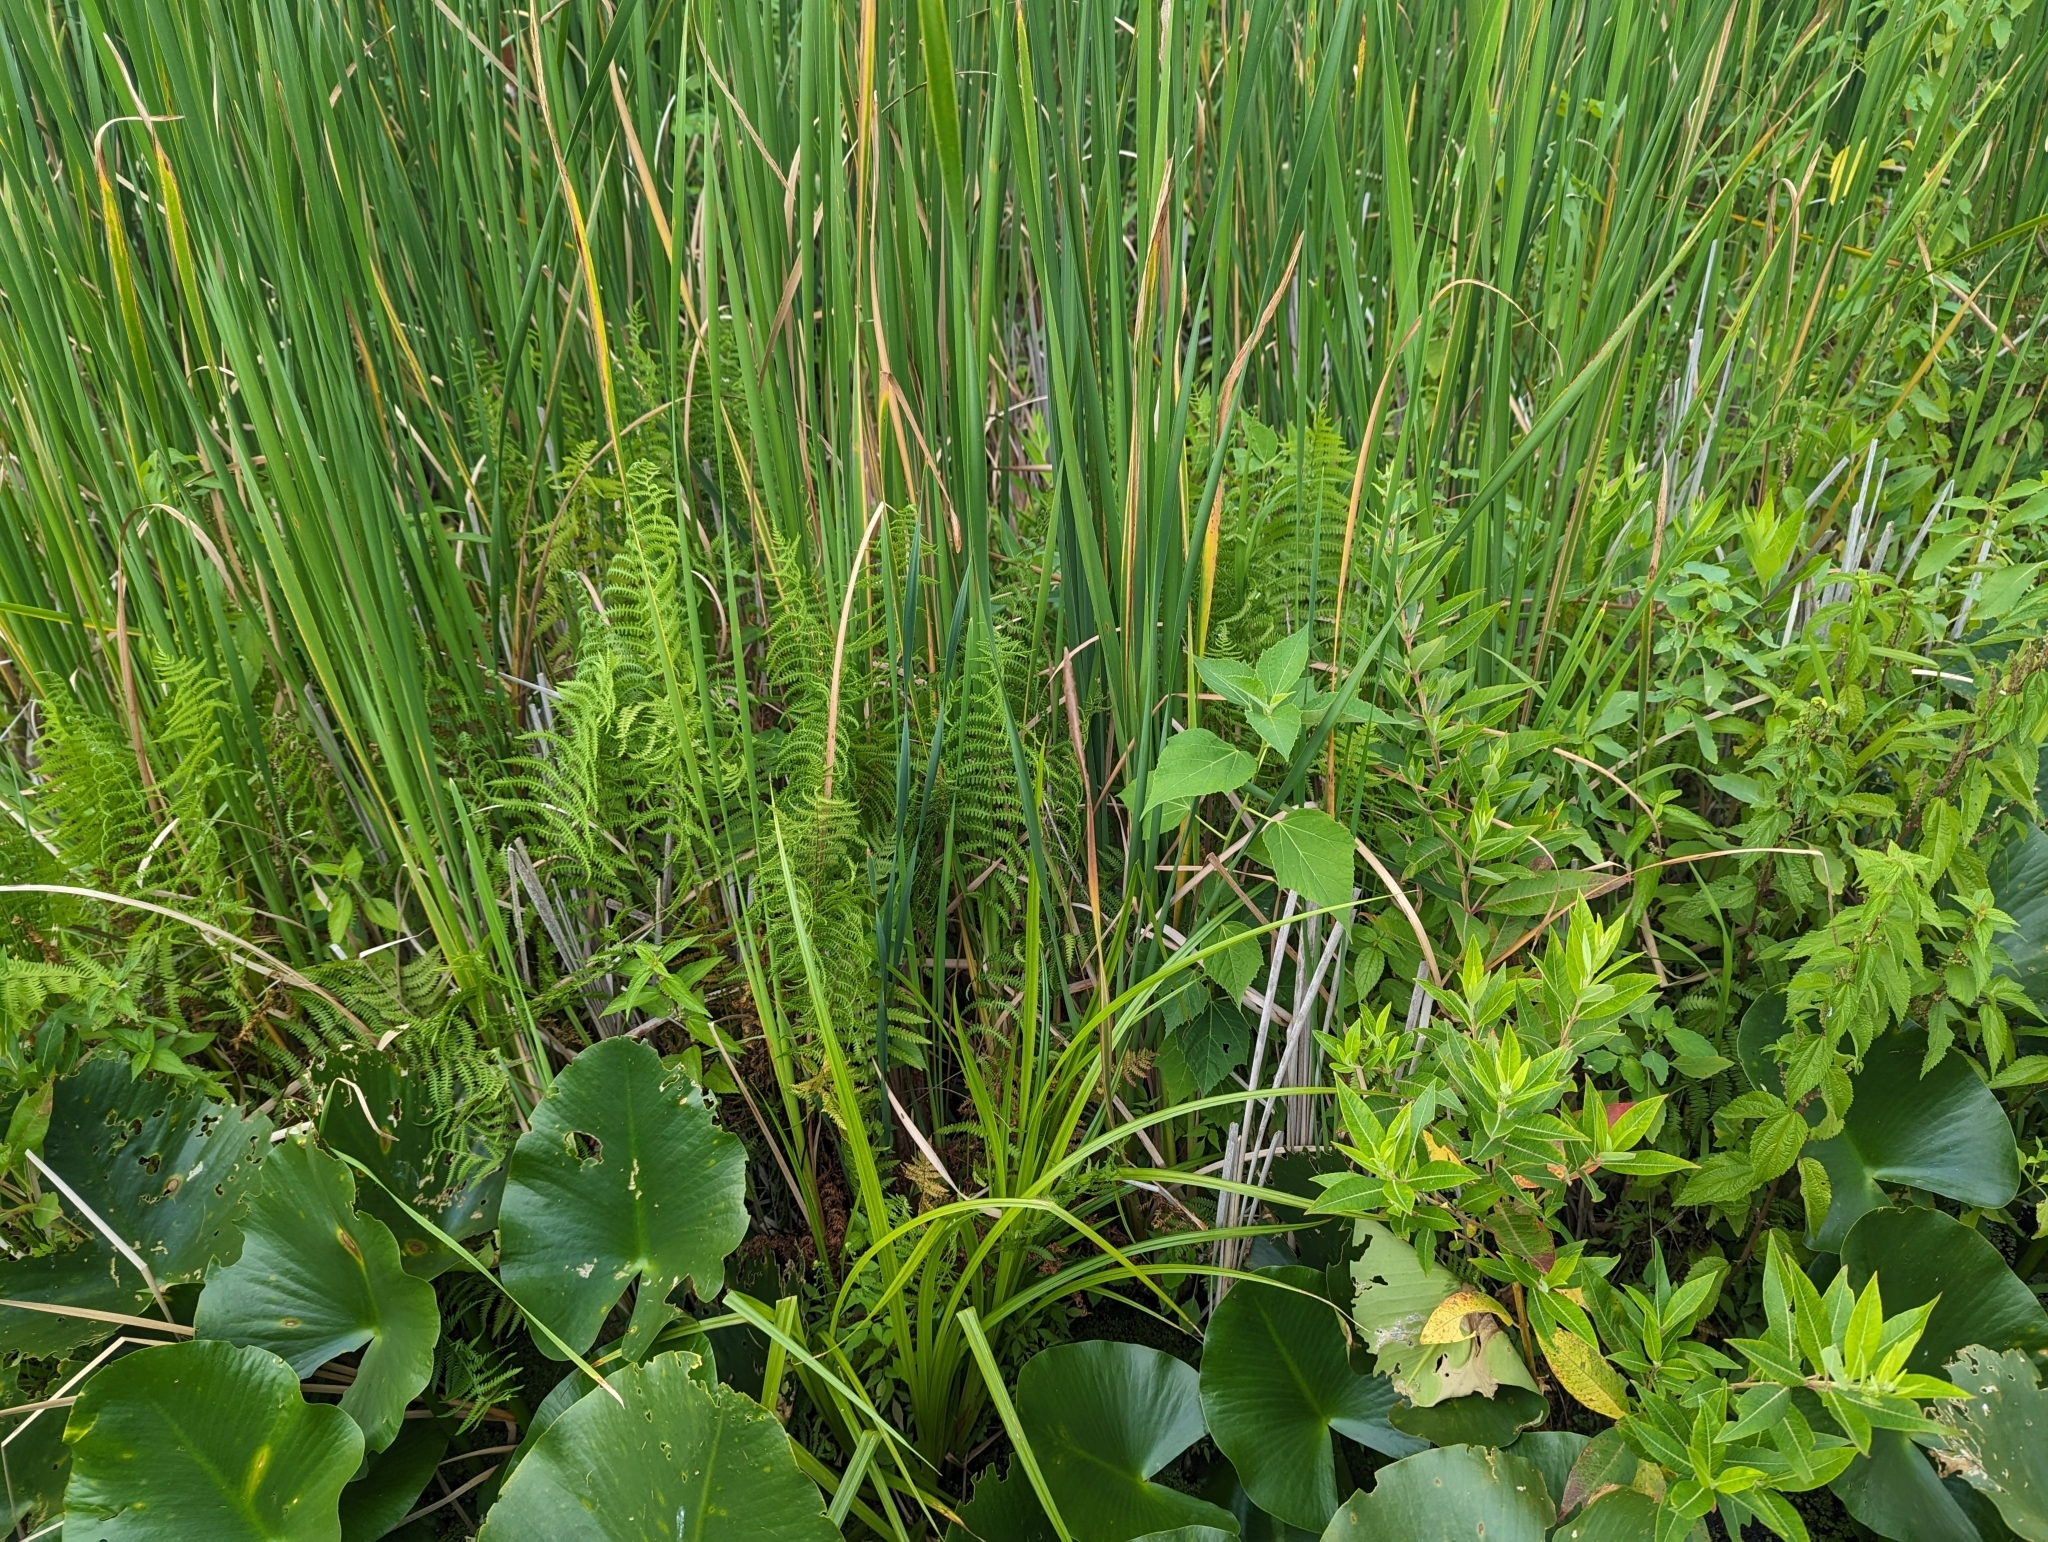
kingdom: Plantae
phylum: Tracheophyta
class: Polypodiopsida
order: Polypodiales
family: Thelypteridaceae
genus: Thelypteris
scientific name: Thelypteris palustris
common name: Marsh fern
